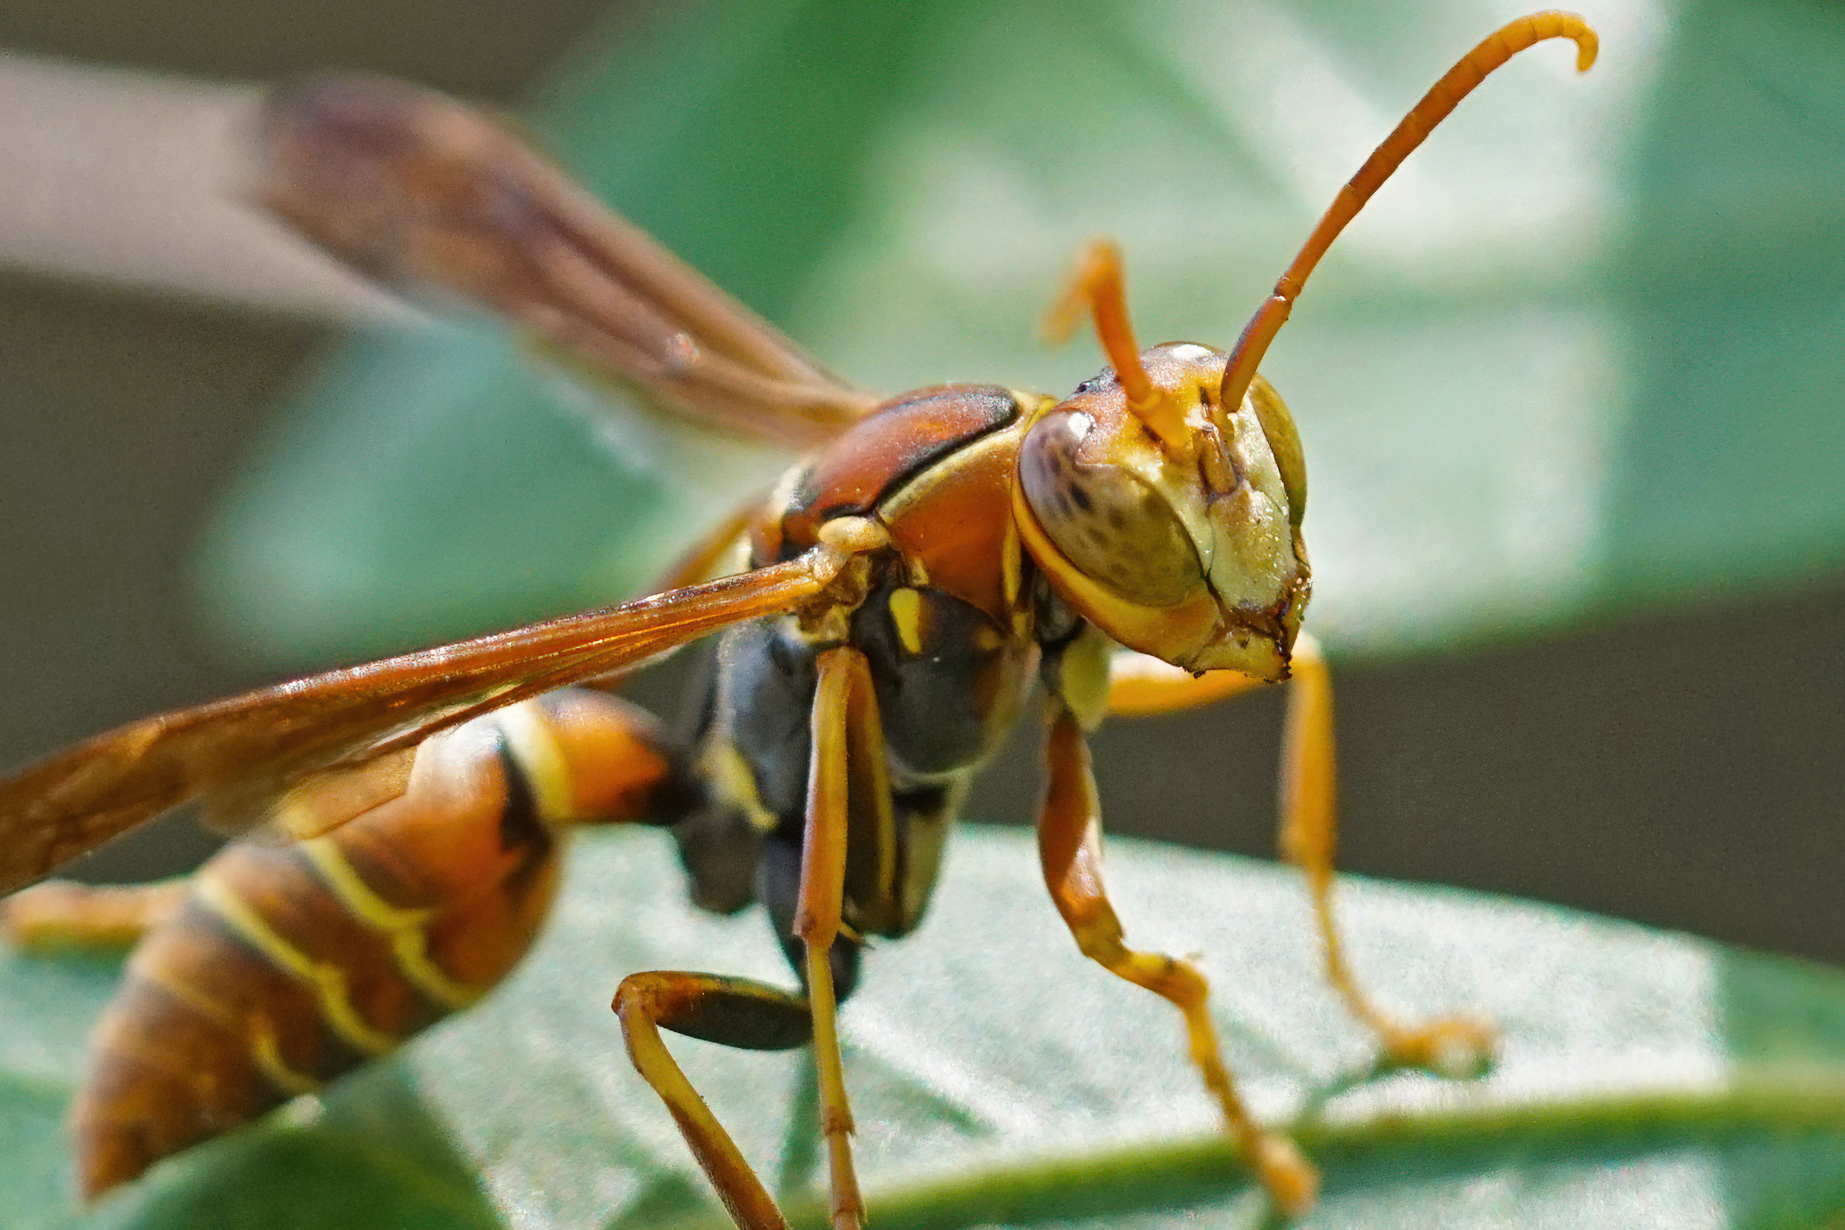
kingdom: Animalia
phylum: Arthropoda
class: Insecta
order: Hymenoptera
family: Eumenidae
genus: Polistes
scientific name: Polistes dorsalis
